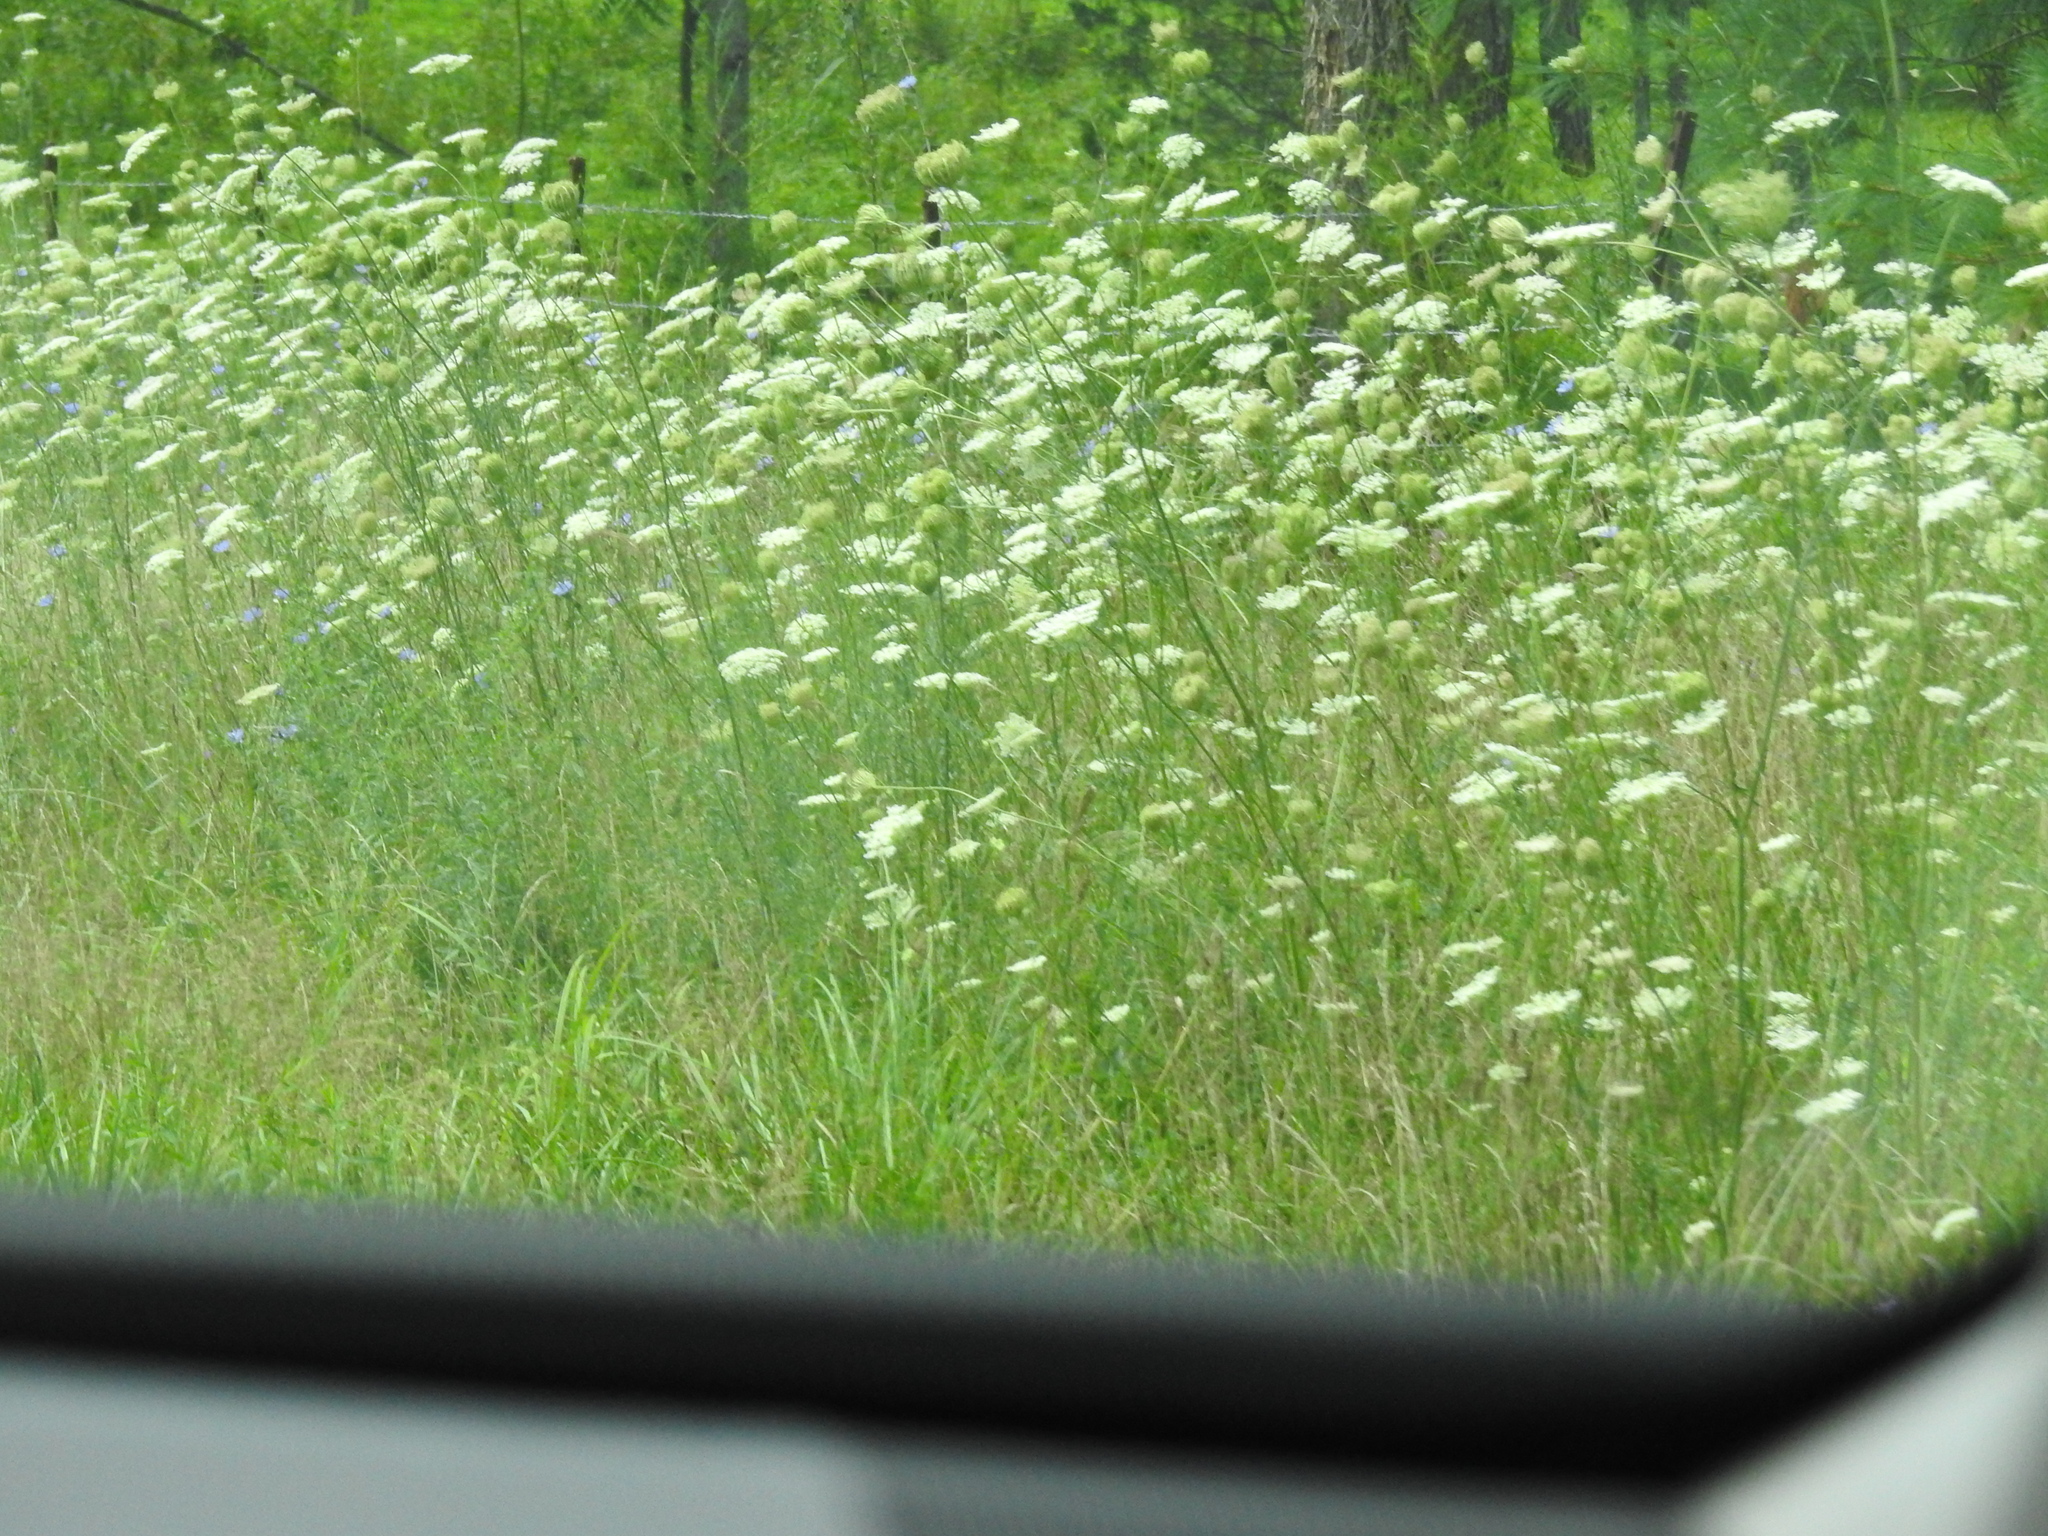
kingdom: Plantae
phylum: Tracheophyta
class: Magnoliopsida
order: Apiales
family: Apiaceae
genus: Daucus
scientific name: Daucus carota
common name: Wild carrot
